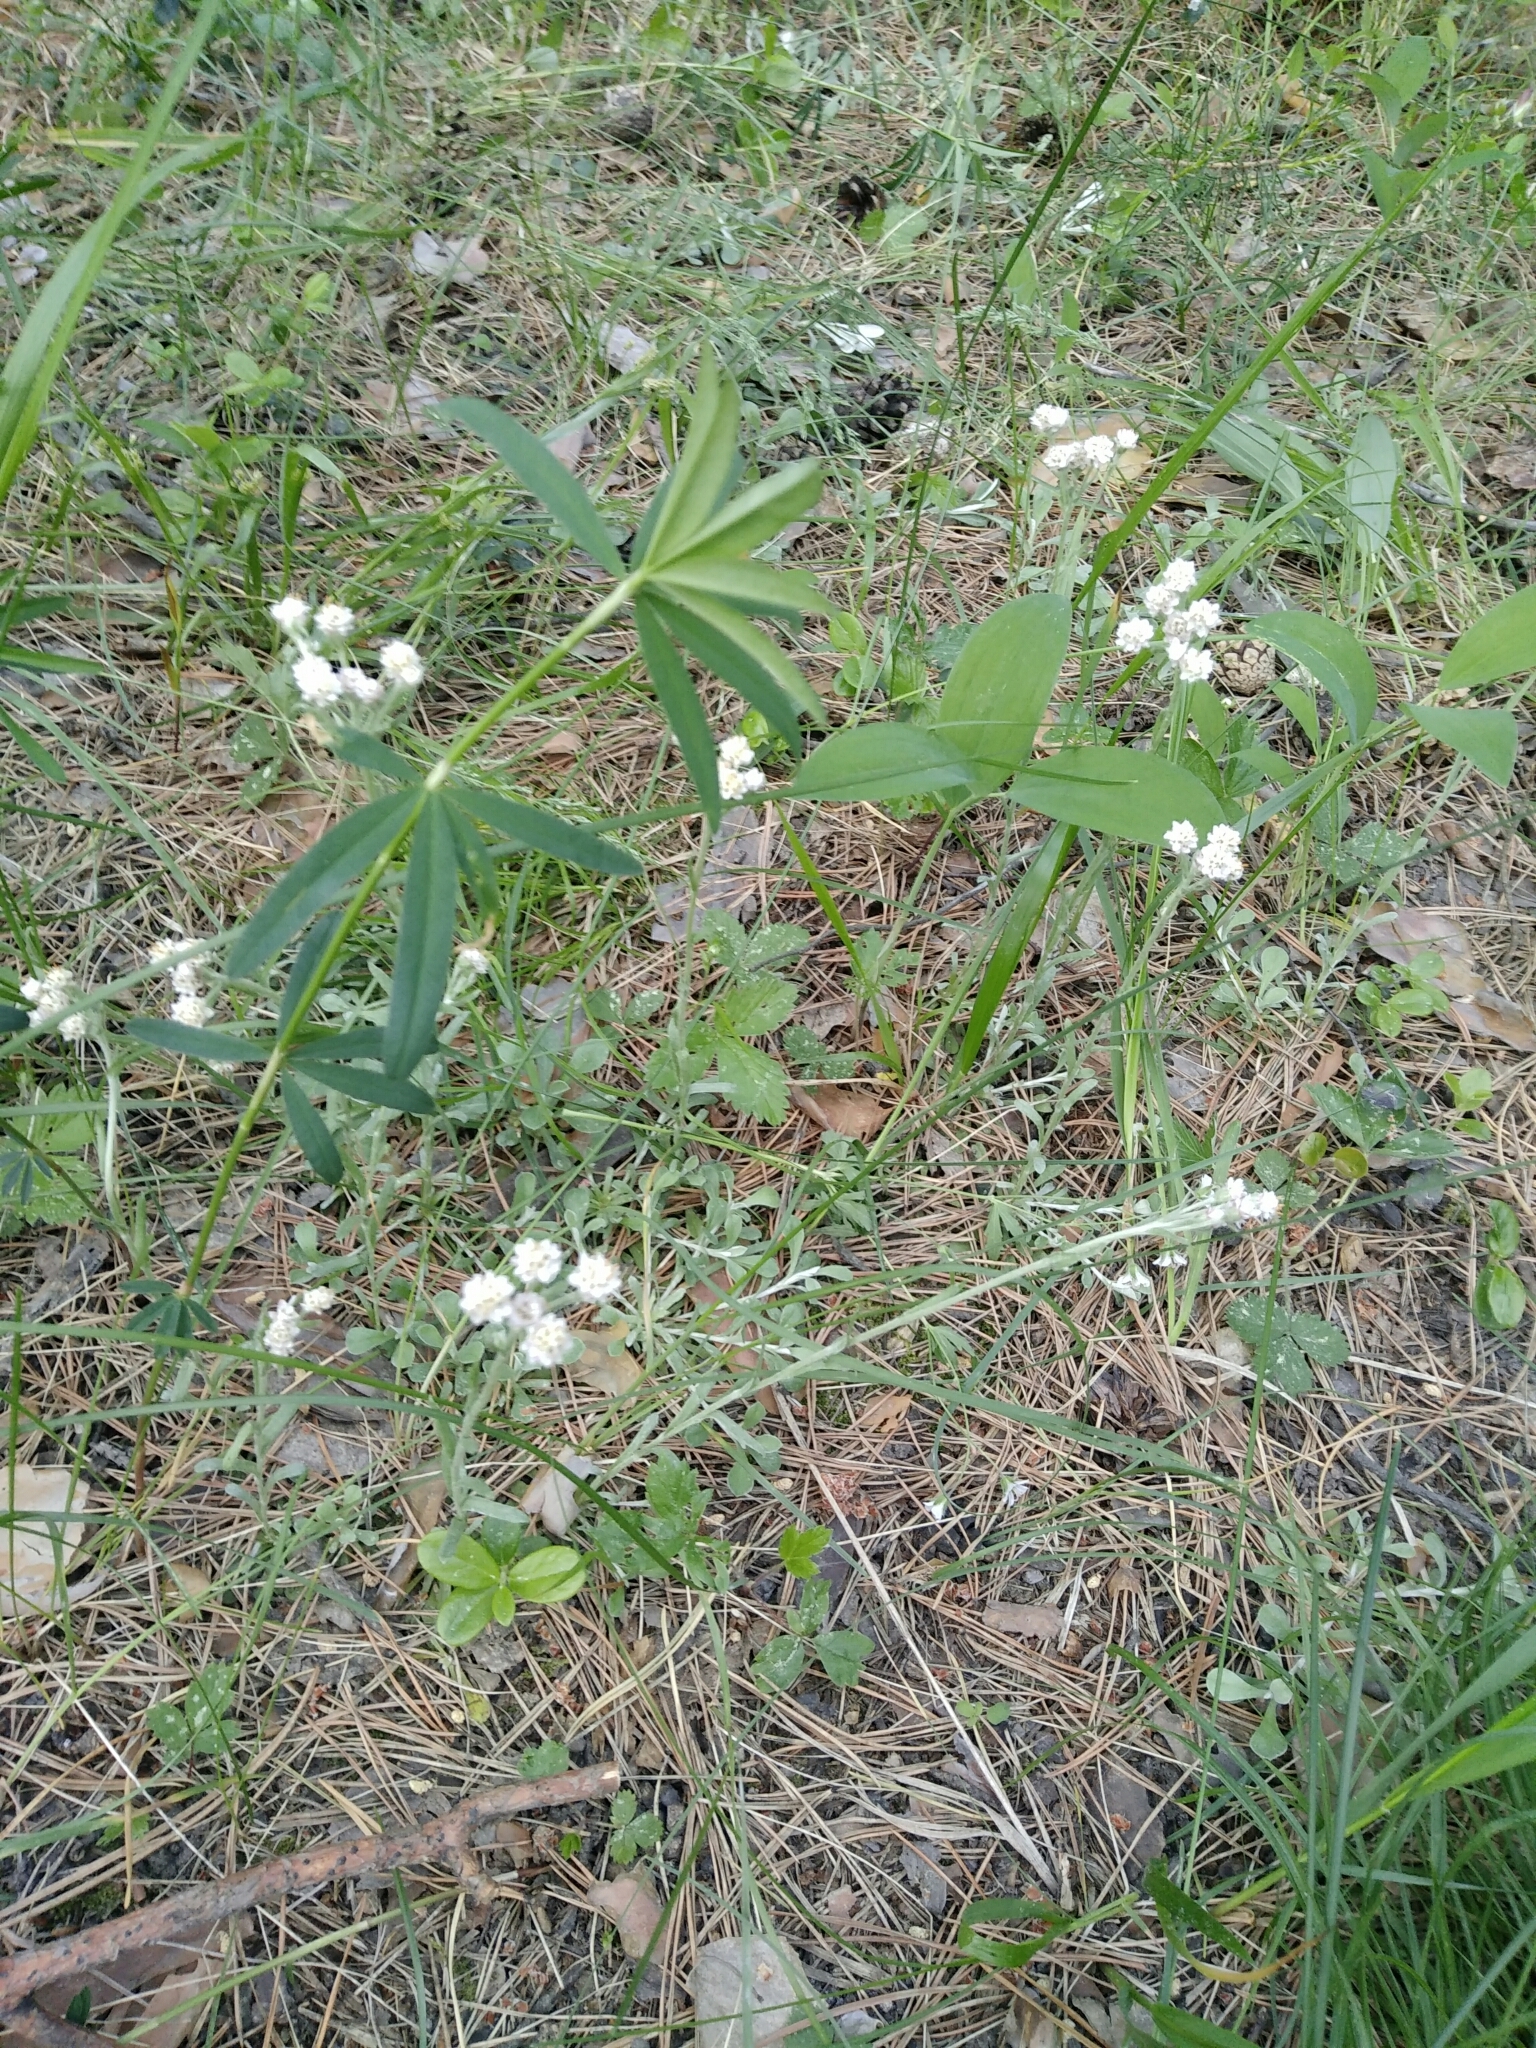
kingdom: Plantae
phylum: Tracheophyta
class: Magnoliopsida
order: Asterales
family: Asteraceae
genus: Antennaria
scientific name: Antennaria dioica
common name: Mountain everlasting
